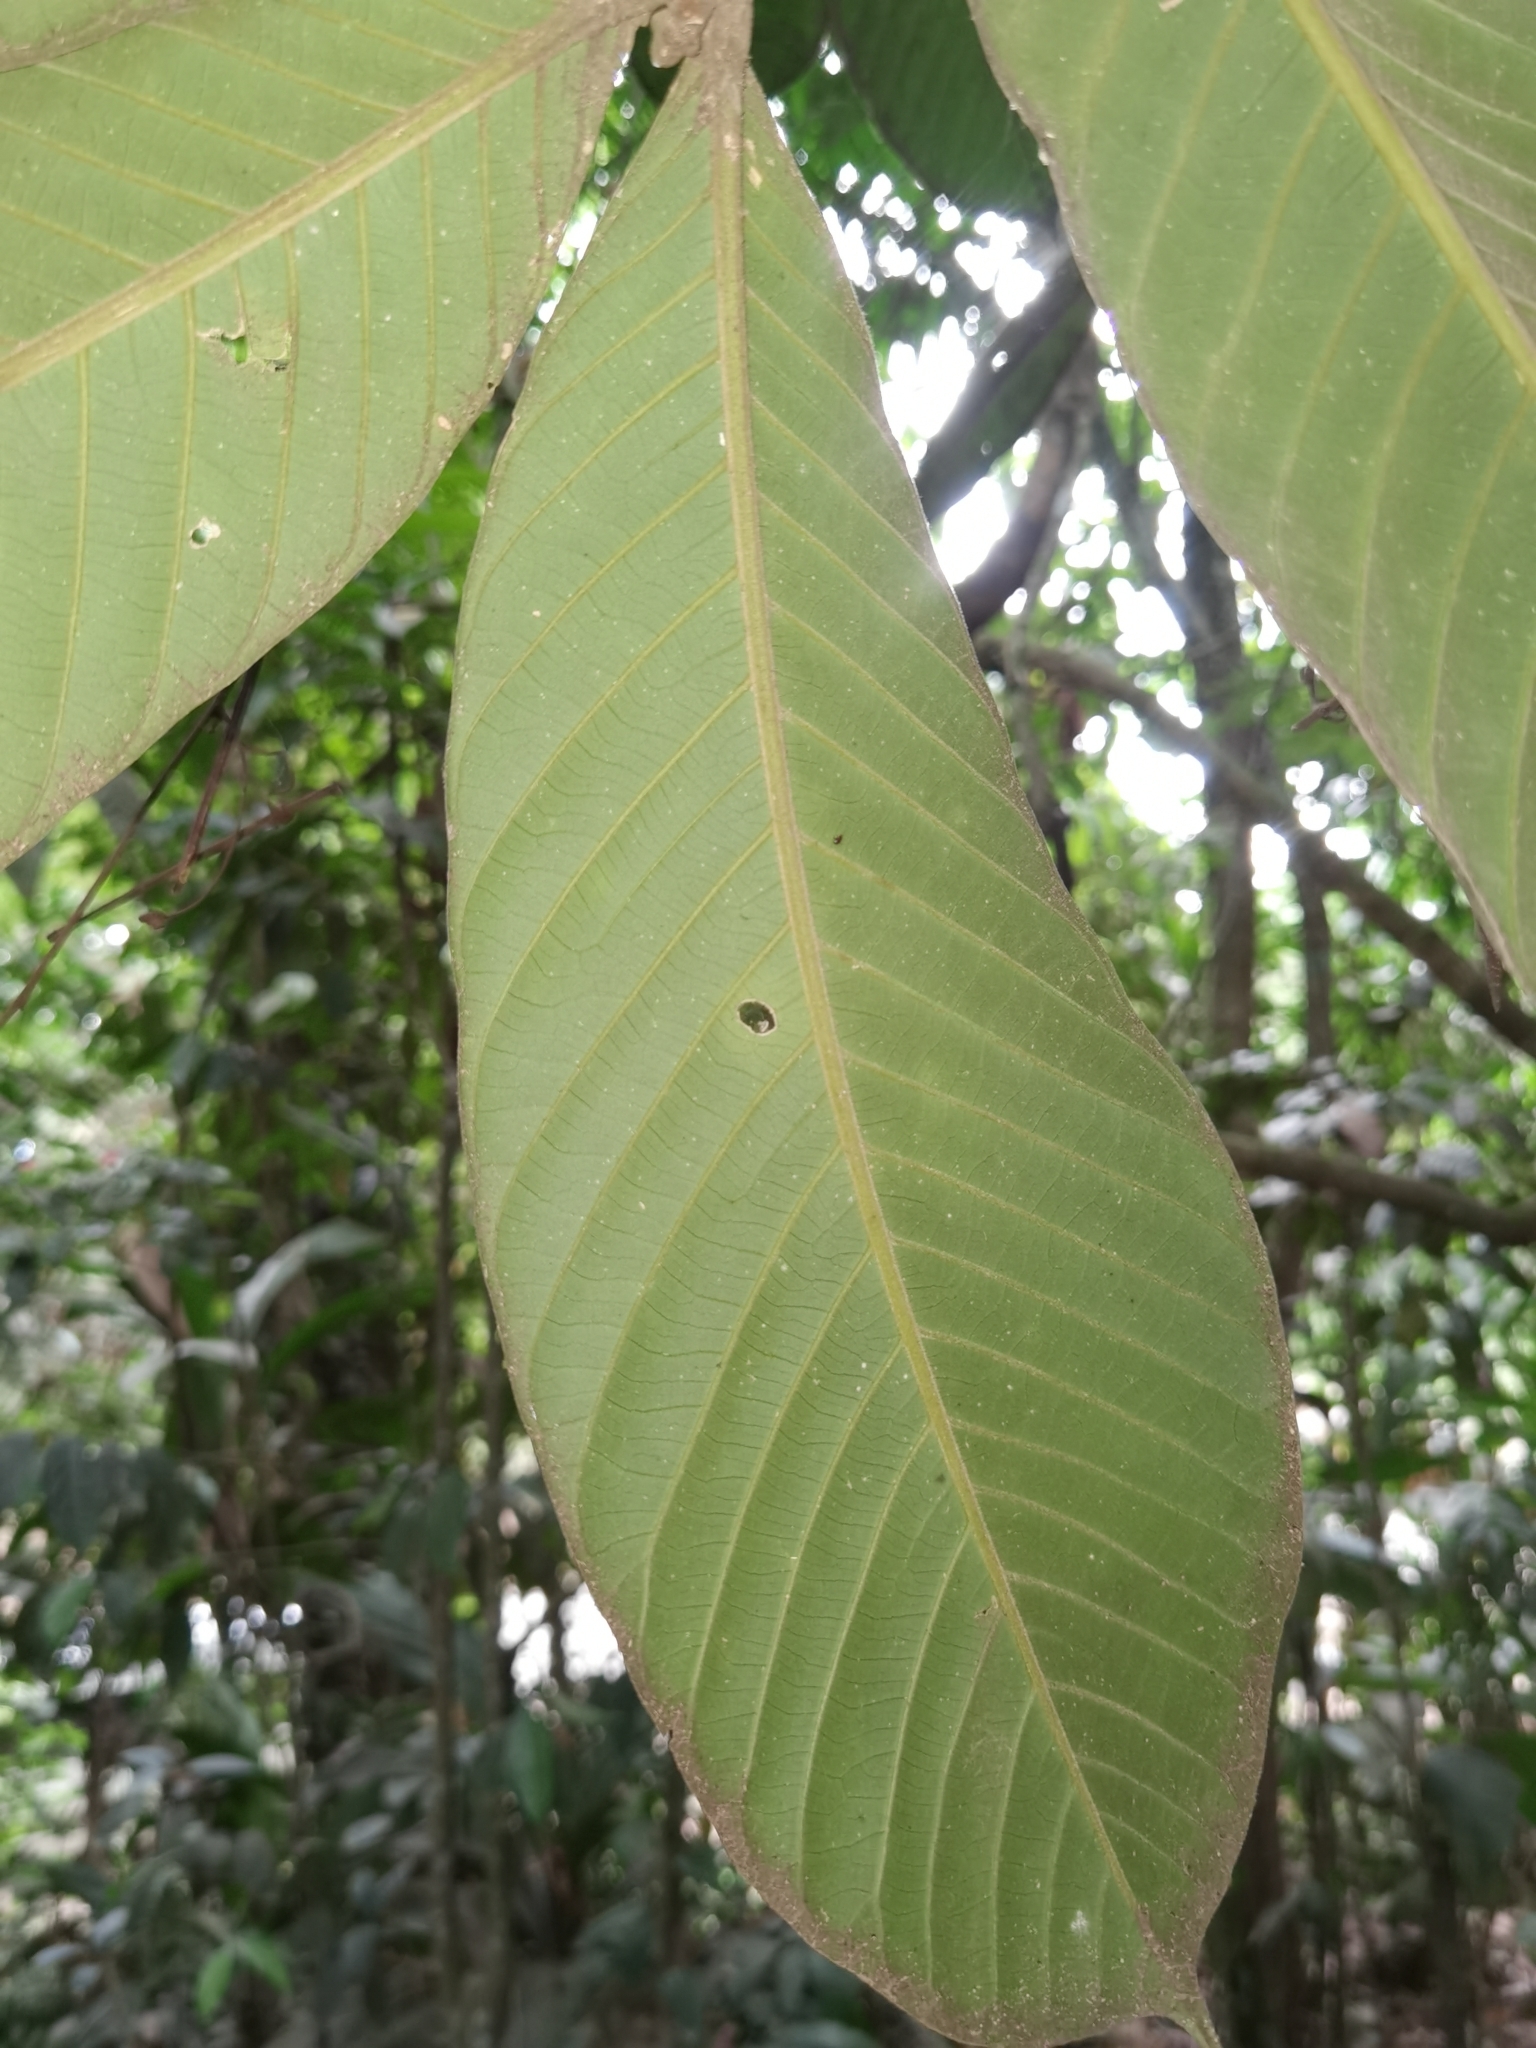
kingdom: Plantae
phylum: Tracheophyta
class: Magnoliopsida
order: Sapindales
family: Meliaceae
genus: Guarea
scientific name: Guarea talamancana
